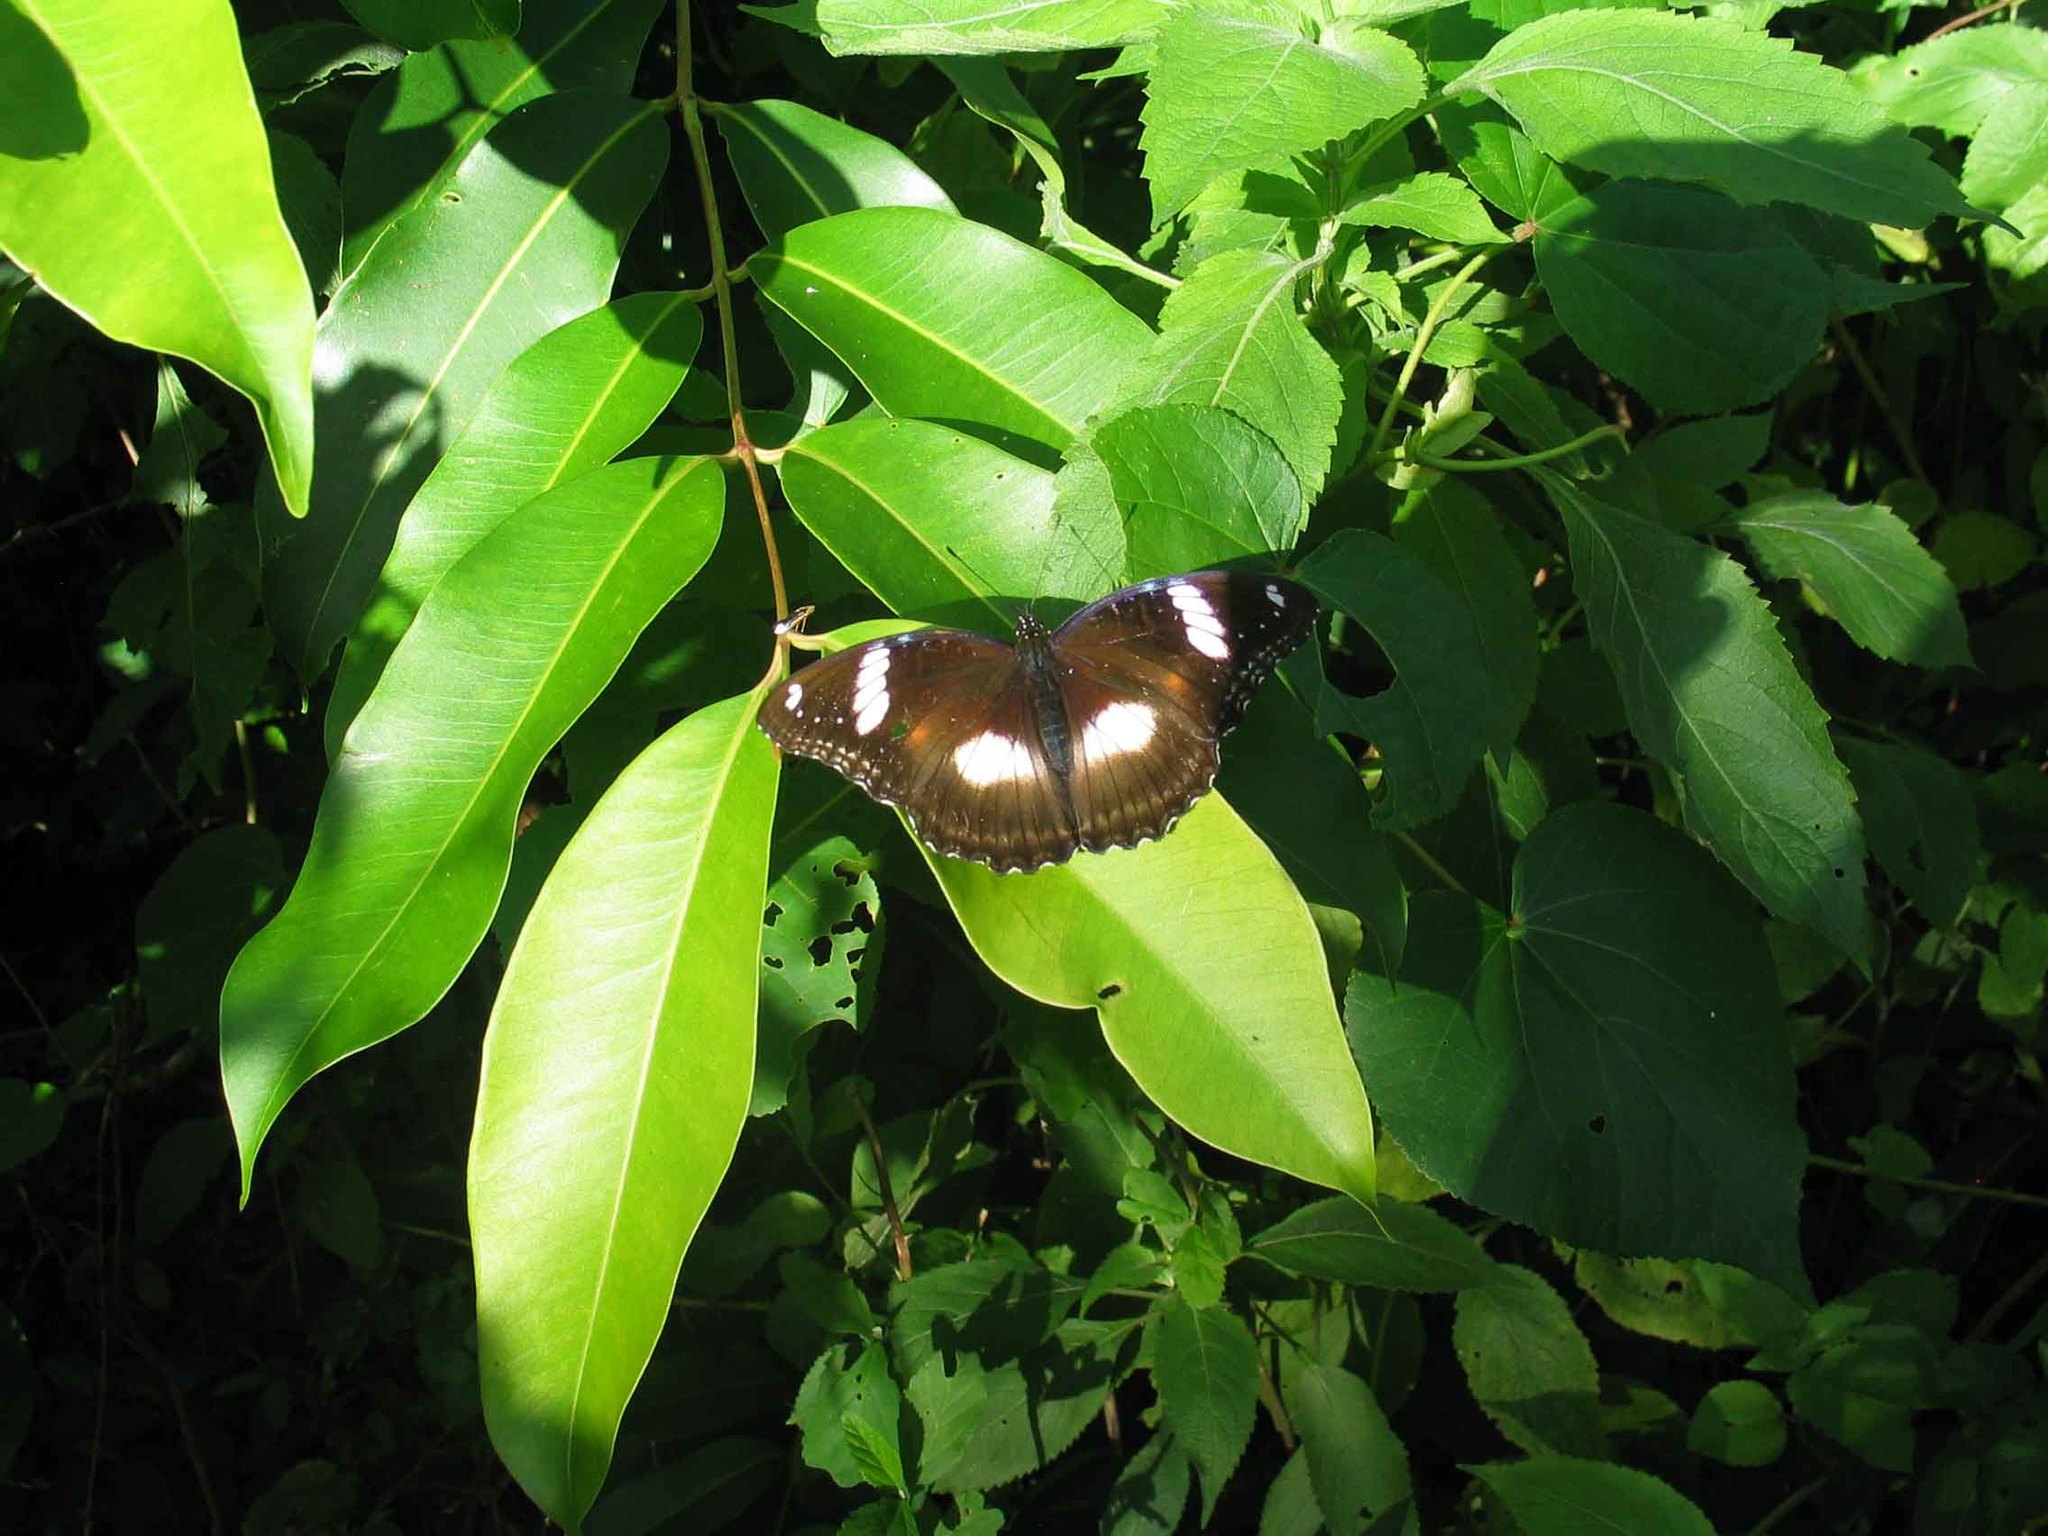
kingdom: Animalia
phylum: Arthropoda
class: Insecta
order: Lepidoptera
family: Nymphalidae
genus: Hypolimnas
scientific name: Hypolimnas bolina
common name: Great eggfly
